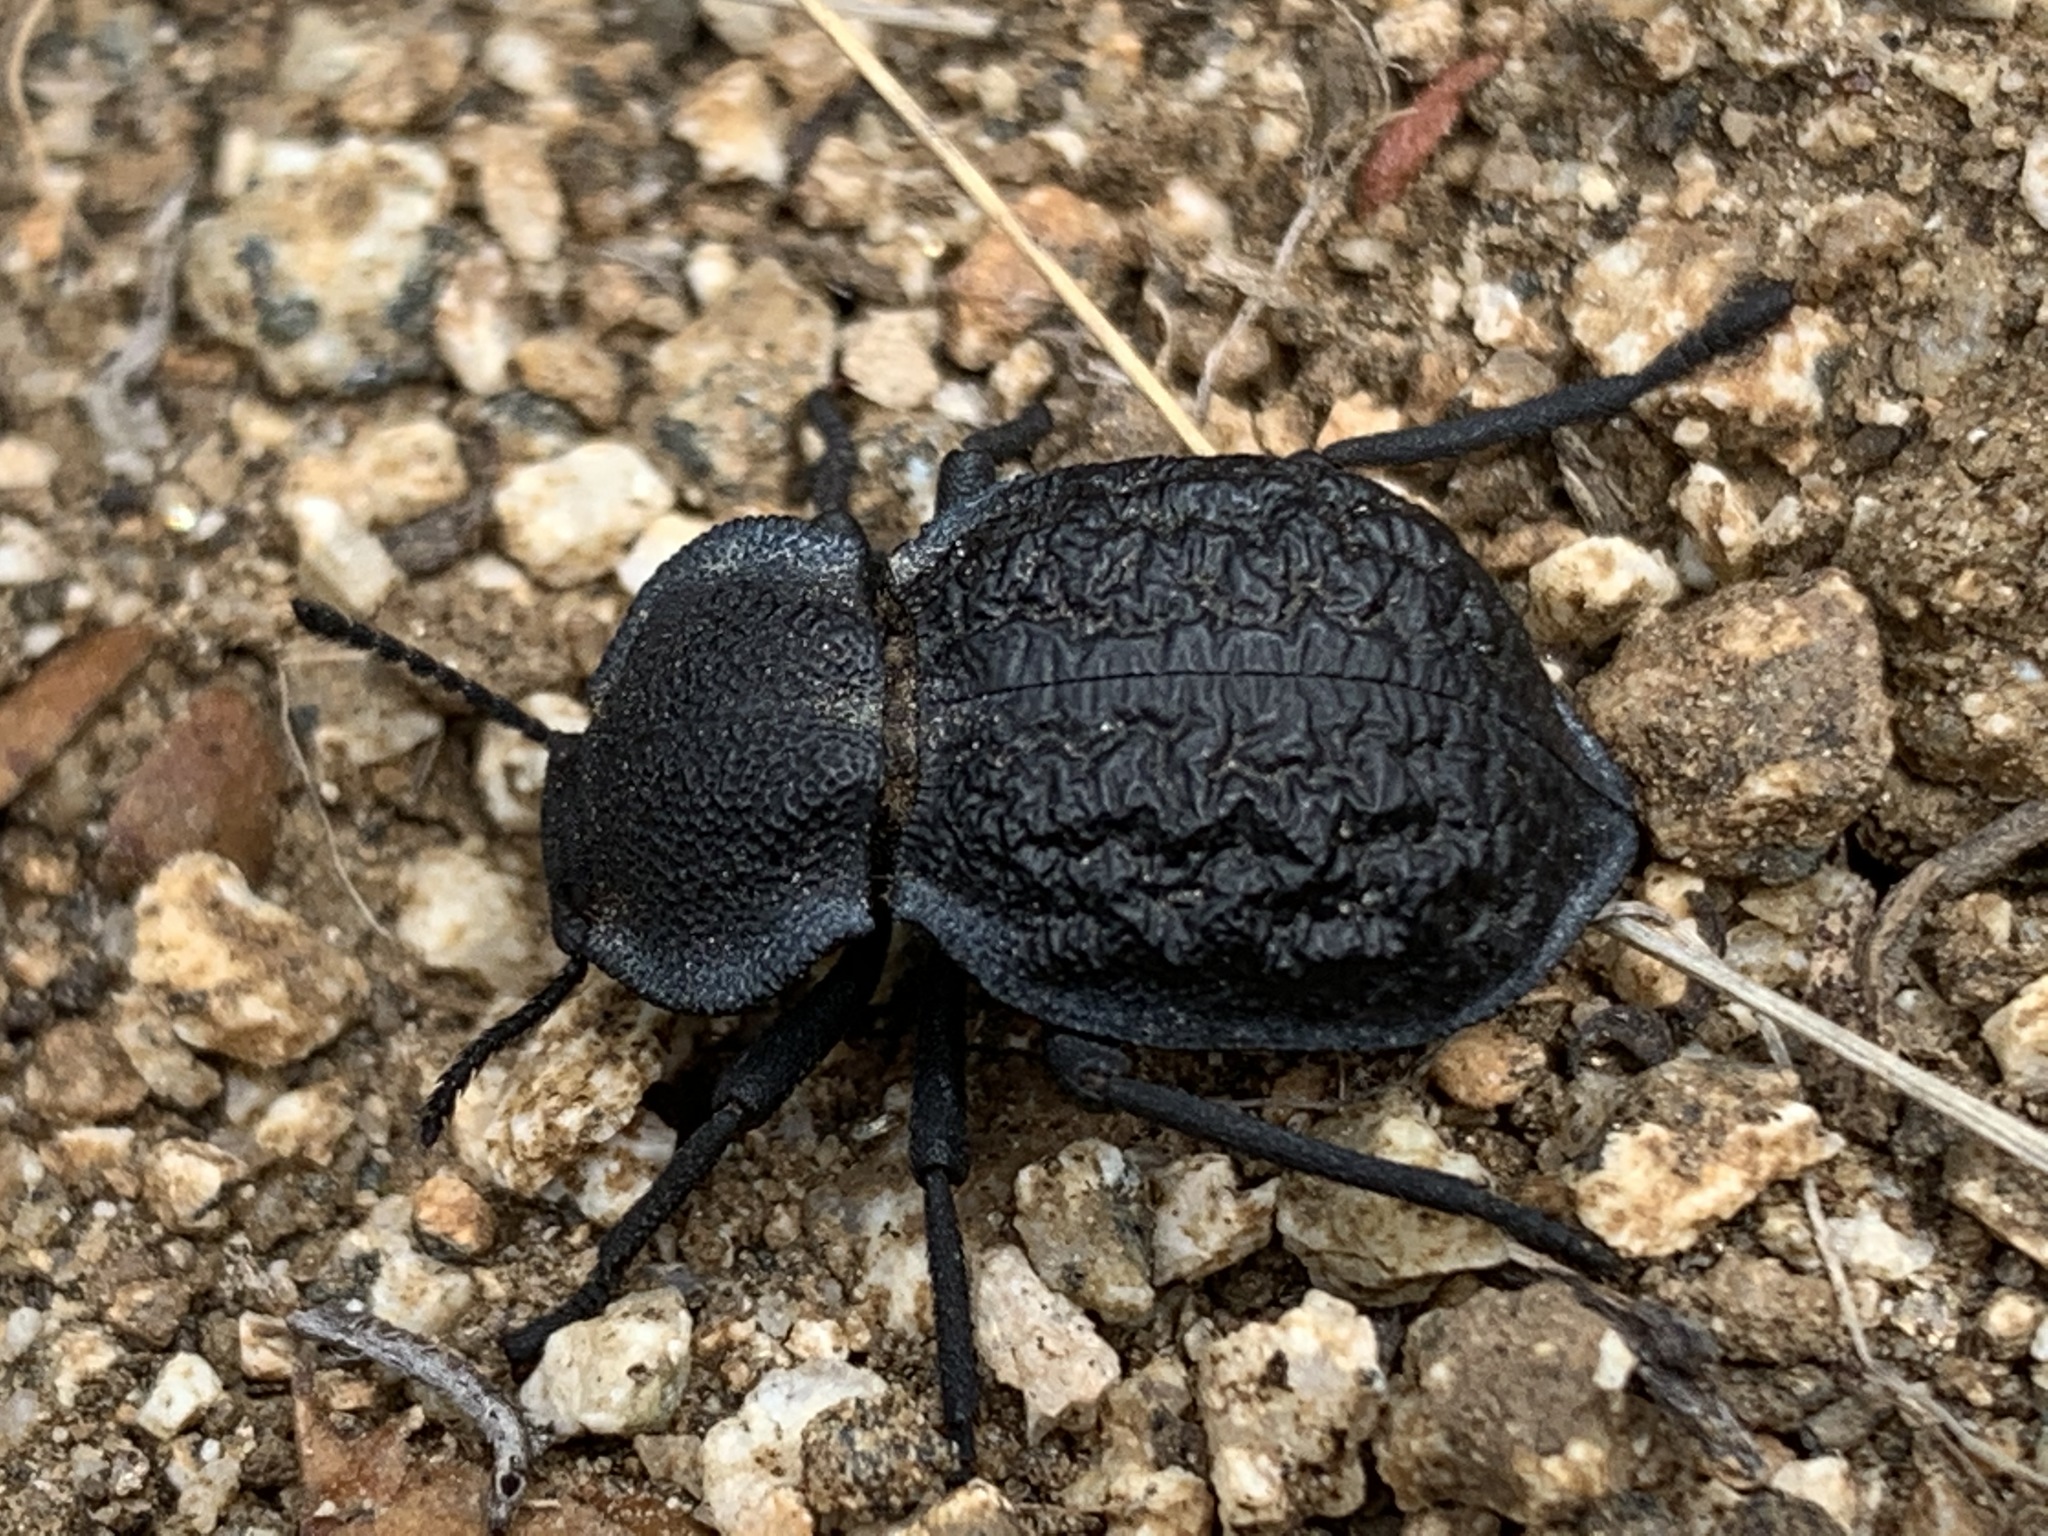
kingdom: Animalia
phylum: Arthropoda
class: Insecta
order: Coleoptera
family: Tenebrionidae
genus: Microschatia
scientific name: Microschatia inaequalis
